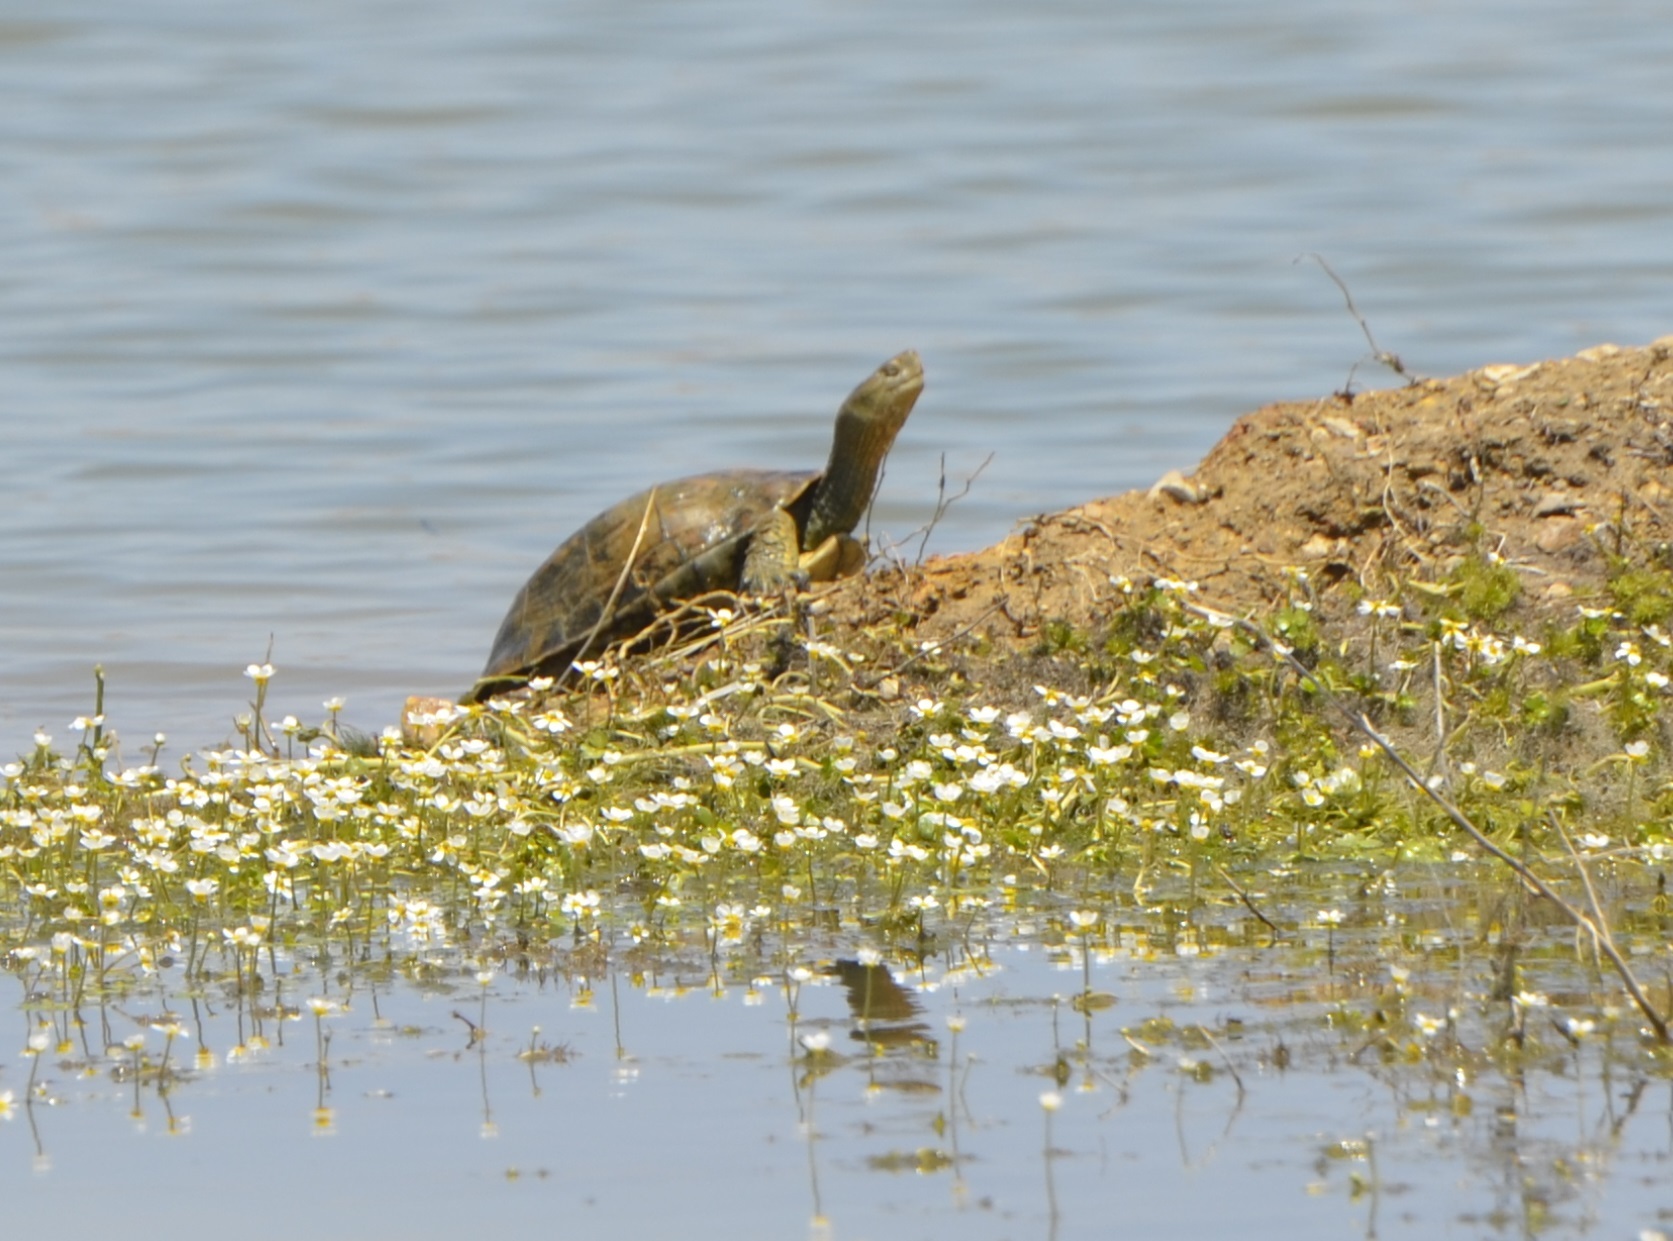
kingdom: Animalia
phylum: Chordata
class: Testudines
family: Geoemydidae
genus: Mauremys
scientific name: Mauremys leprosa
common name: Mediterranean pond turtle
